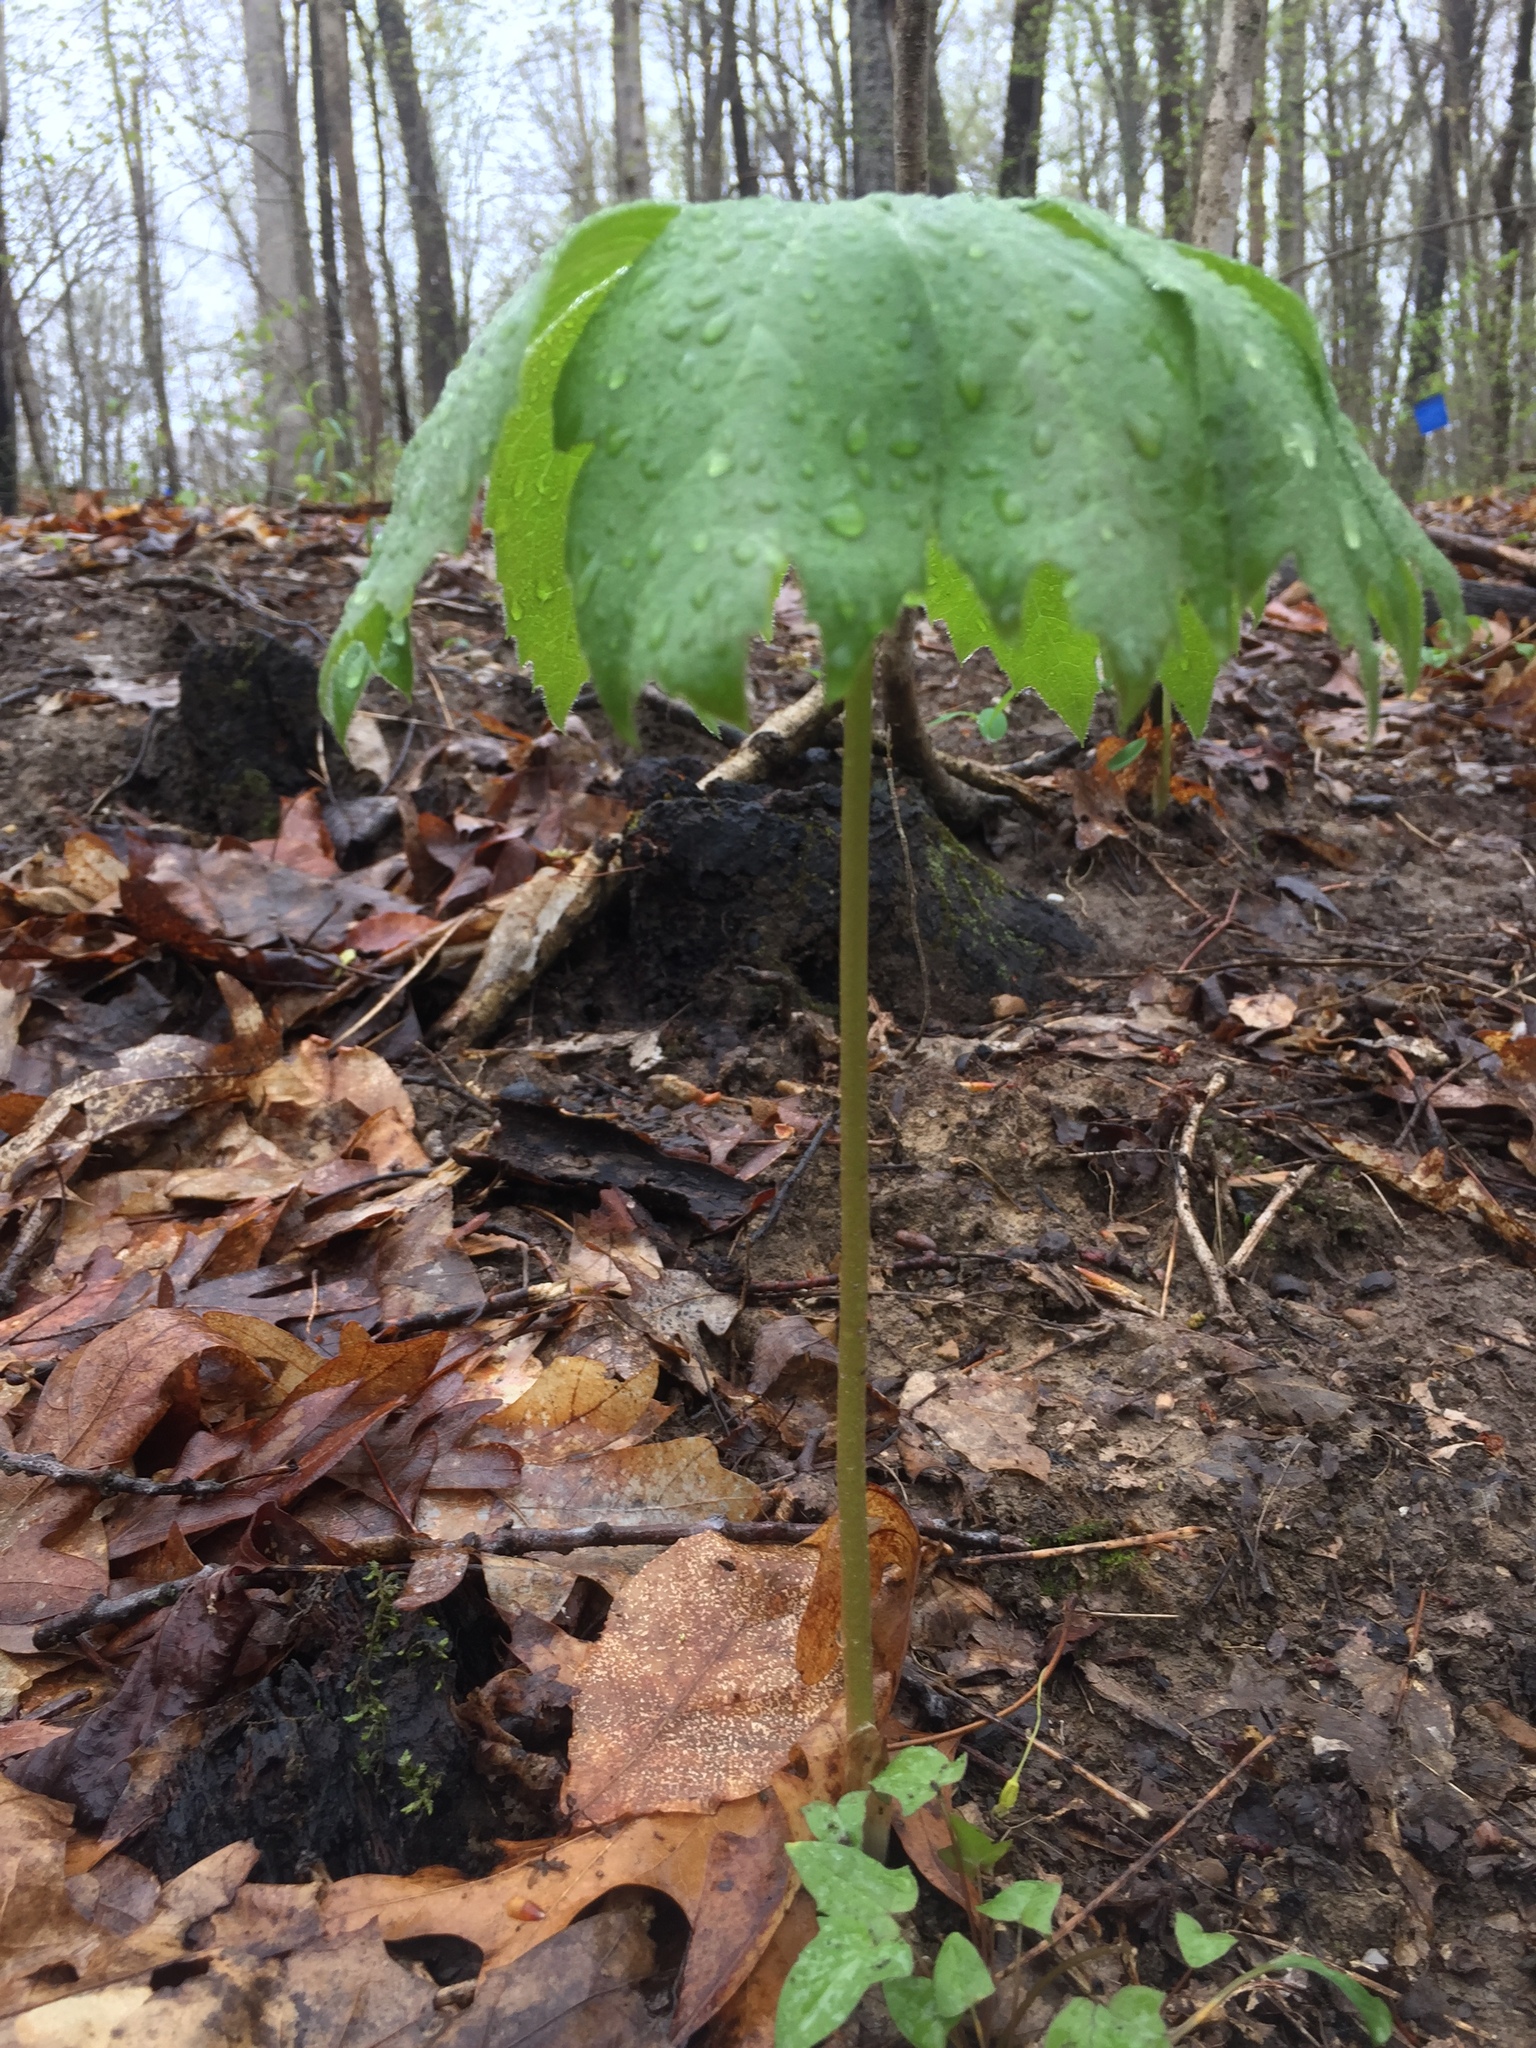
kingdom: Plantae
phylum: Tracheophyta
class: Magnoliopsida
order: Ranunculales
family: Berberidaceae
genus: Podophyllum
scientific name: Podophyllum peltatum
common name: Wild mandrake
